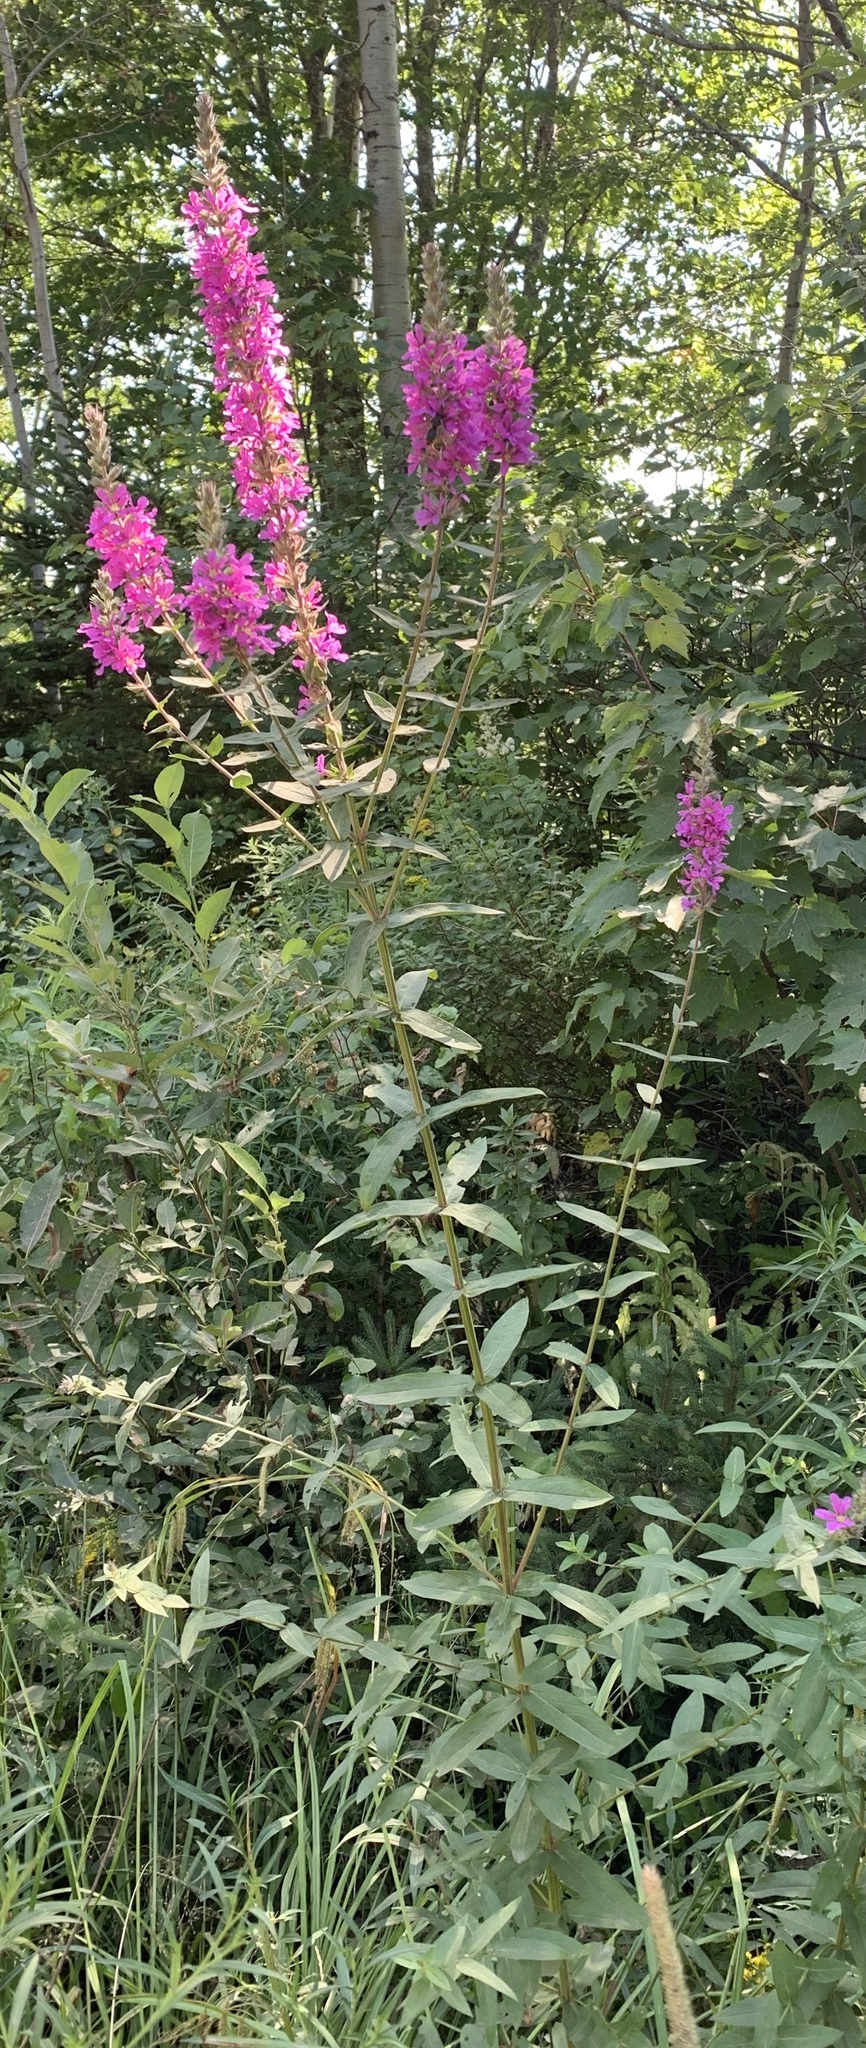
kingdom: Plantae
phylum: Tracheophyta
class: Magnoliopsida
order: Myrtales
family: Lythraceae
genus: Lythrum
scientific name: Lythrum salicaria
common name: Purple loosestrife
